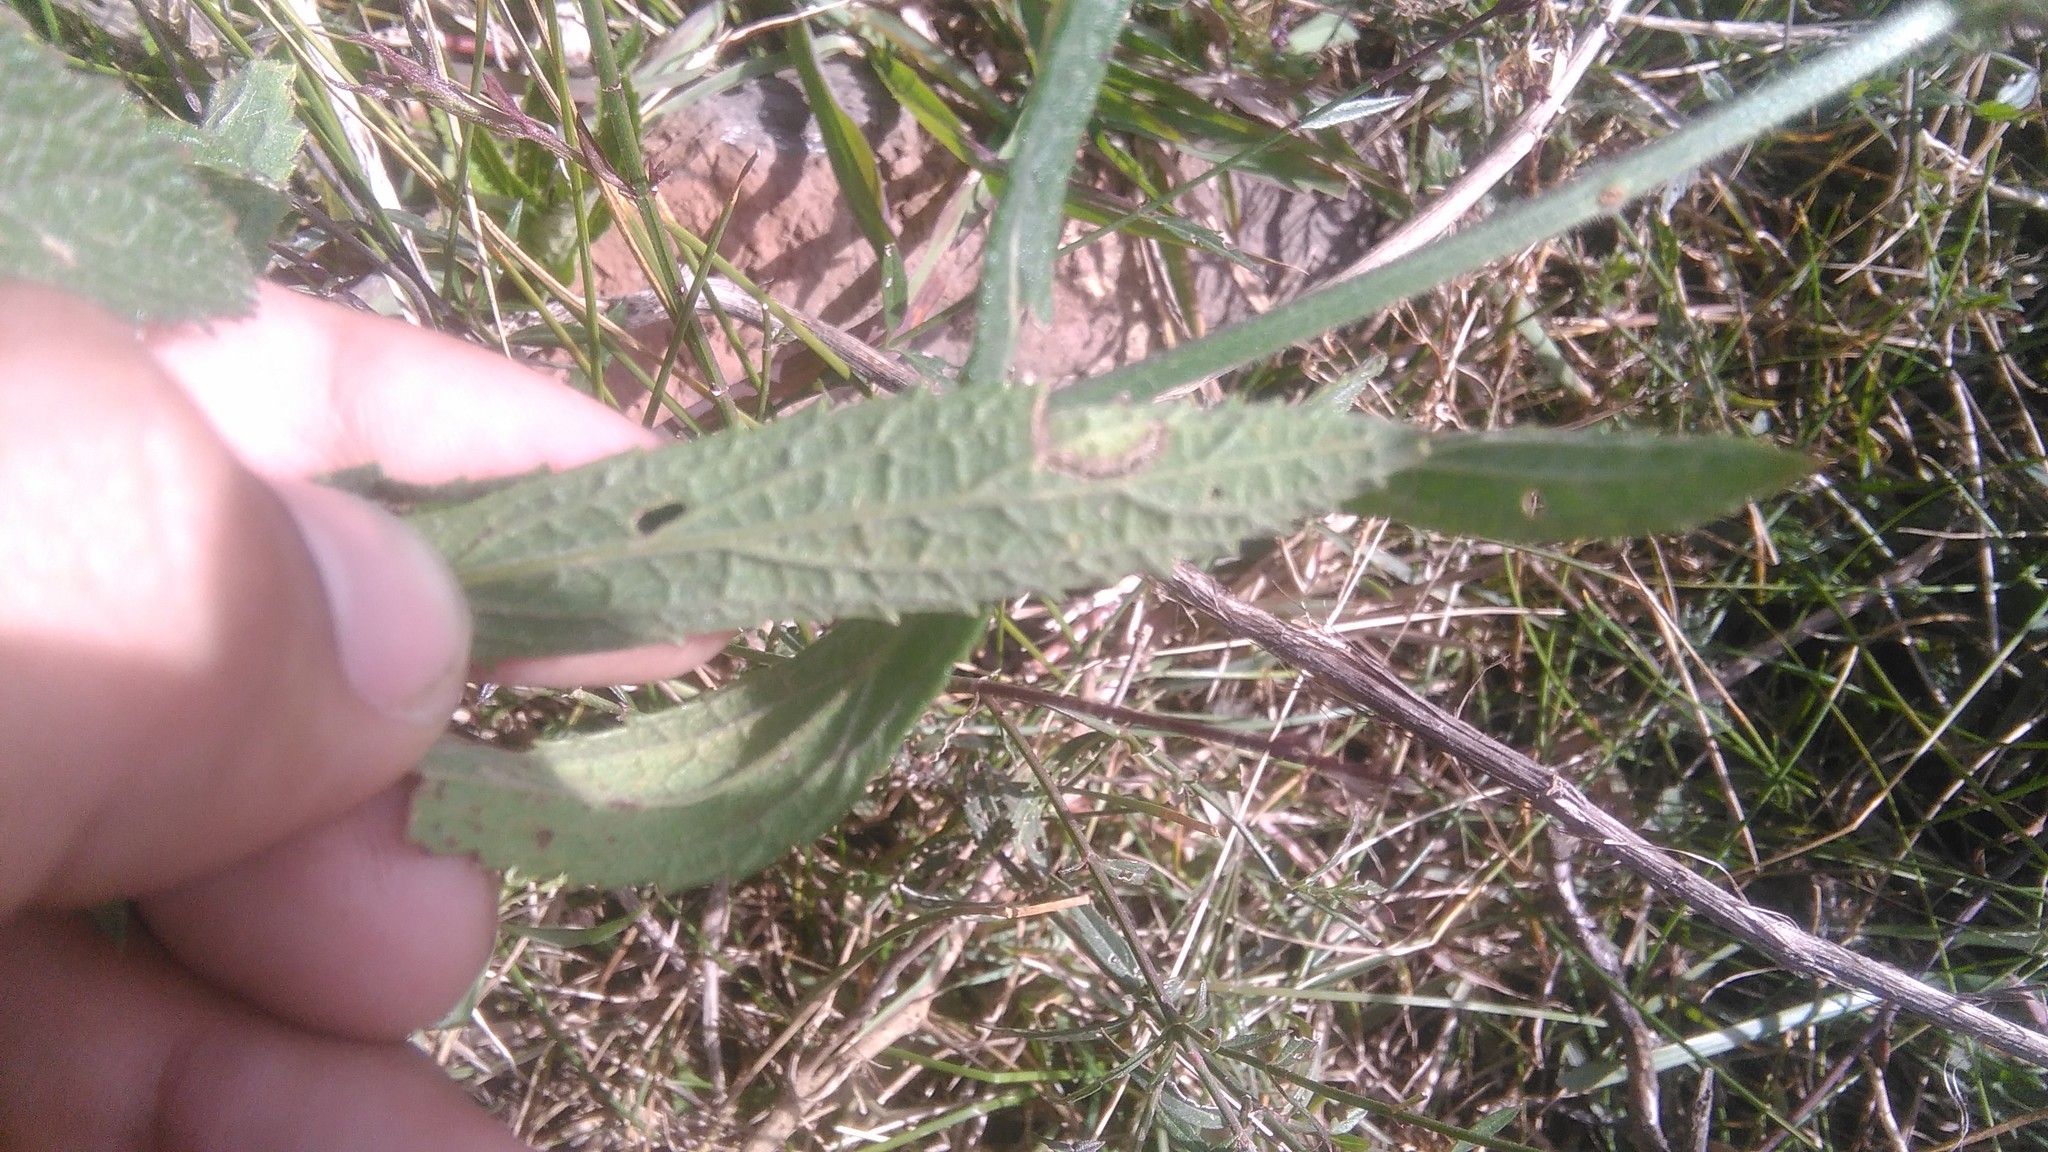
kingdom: Plantae
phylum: Tracheophyta
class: Magnoliopsida
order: Lamiales
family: Verbenaceae
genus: Verbena
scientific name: Verbena bonariensis
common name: Purpletop vervain
